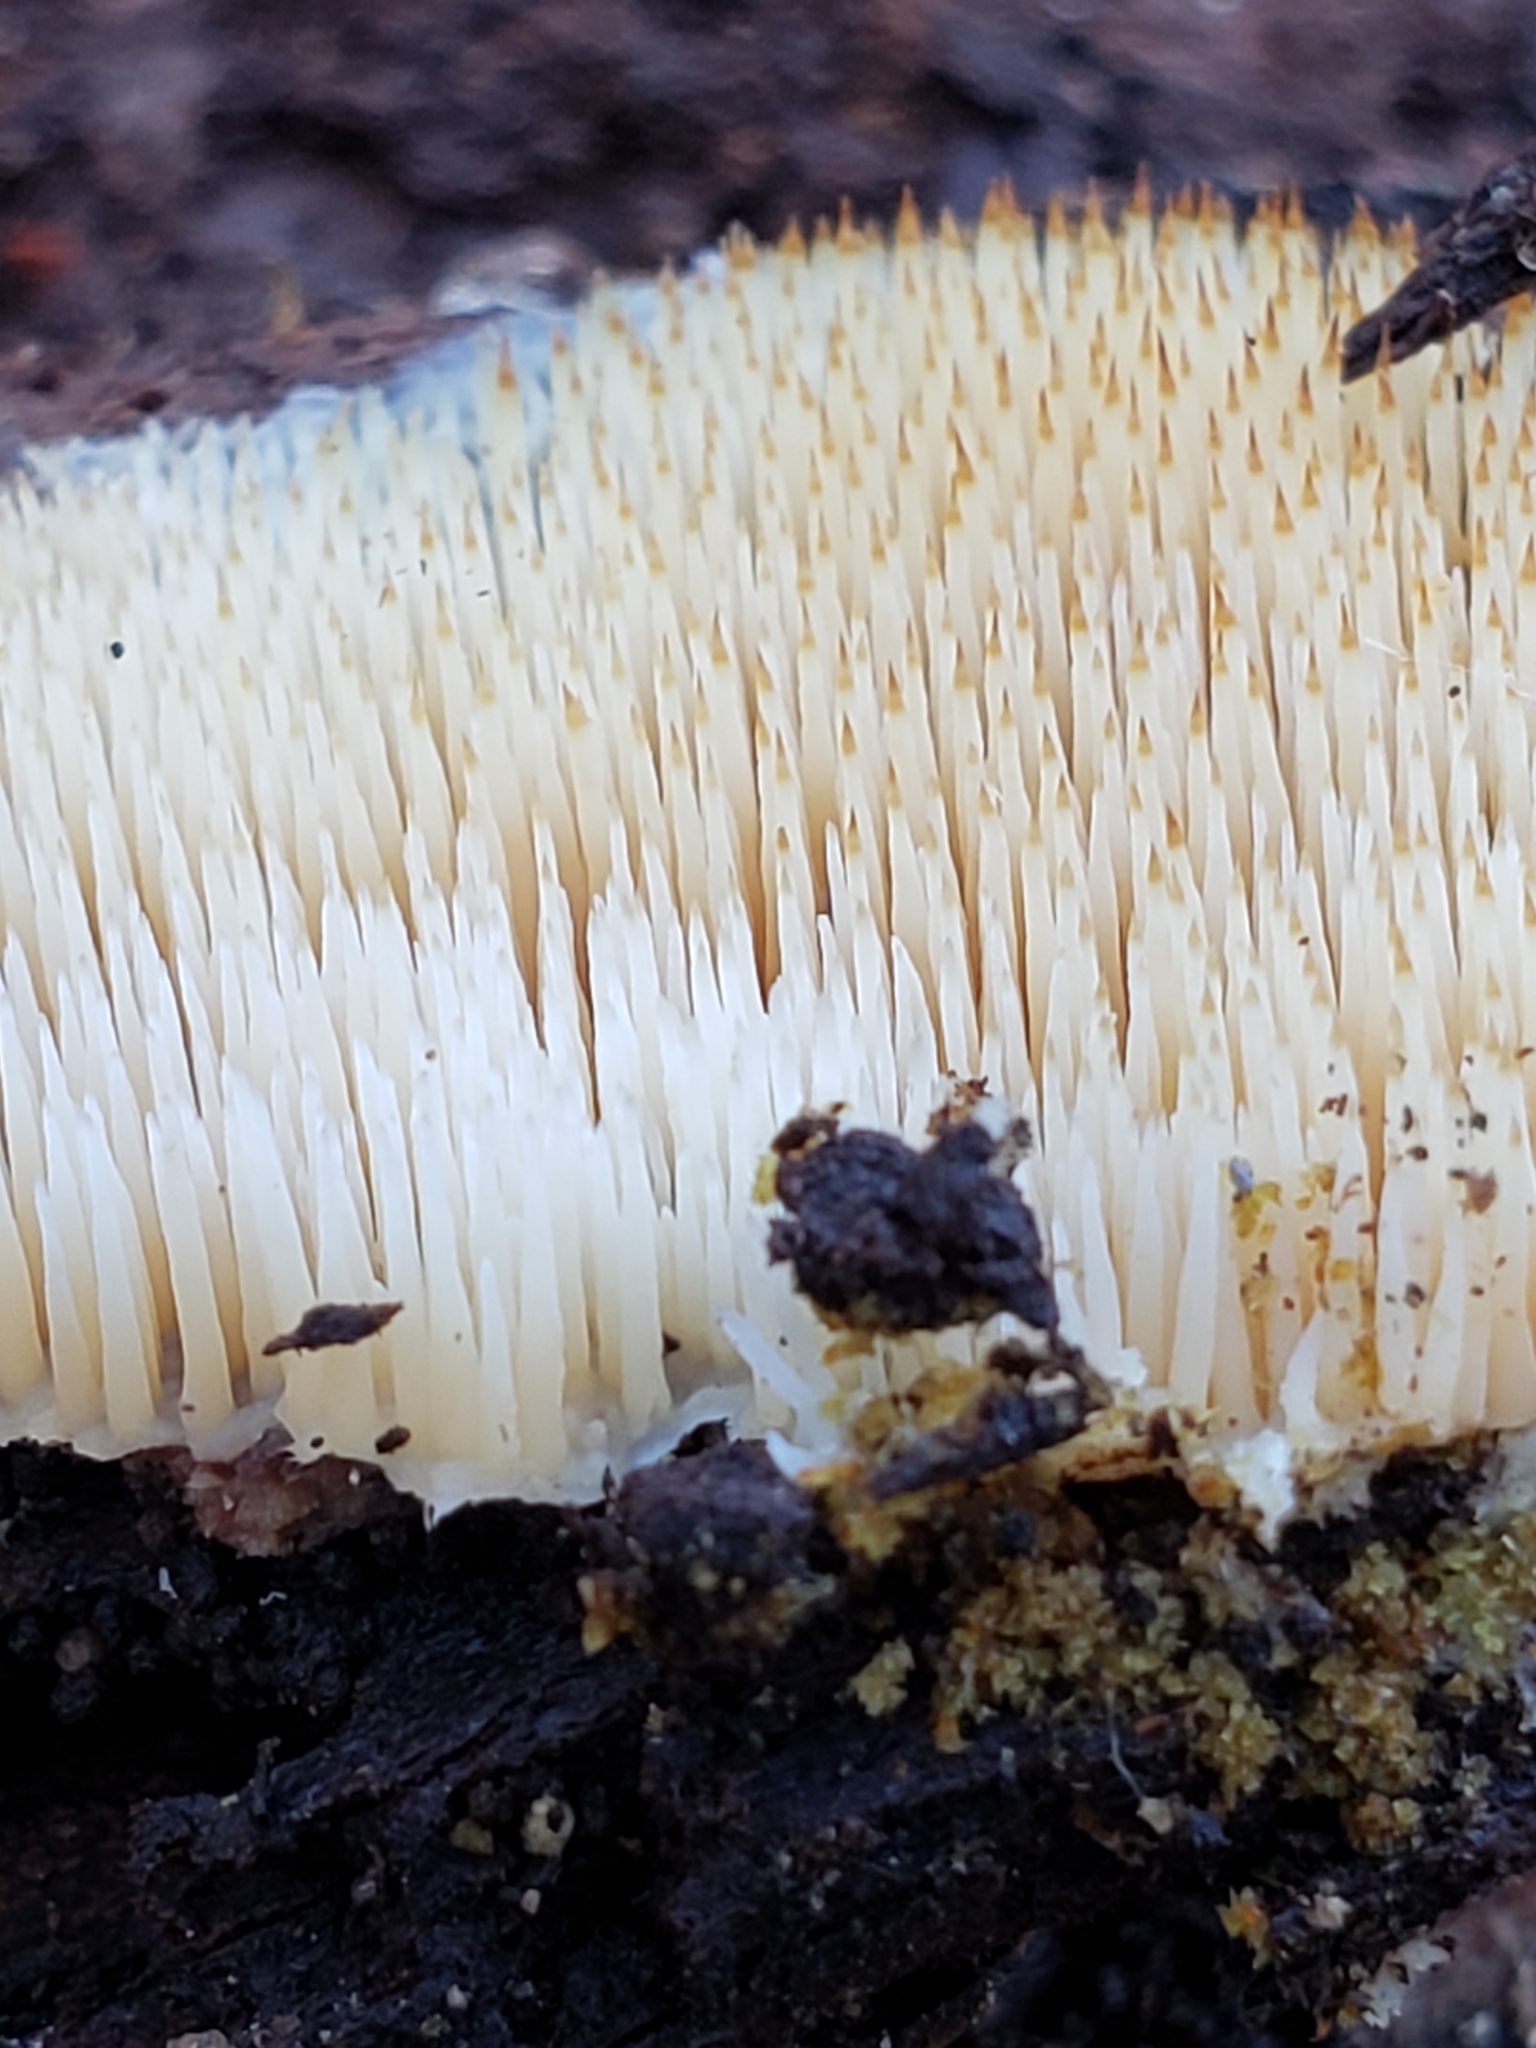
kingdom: Fungi
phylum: Basidiomycota
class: Agaricomycetes
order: Agaricales
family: Radulomycetaceae
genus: Radulomyces
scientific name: Radulomyces copelandii
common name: Asian beauty
